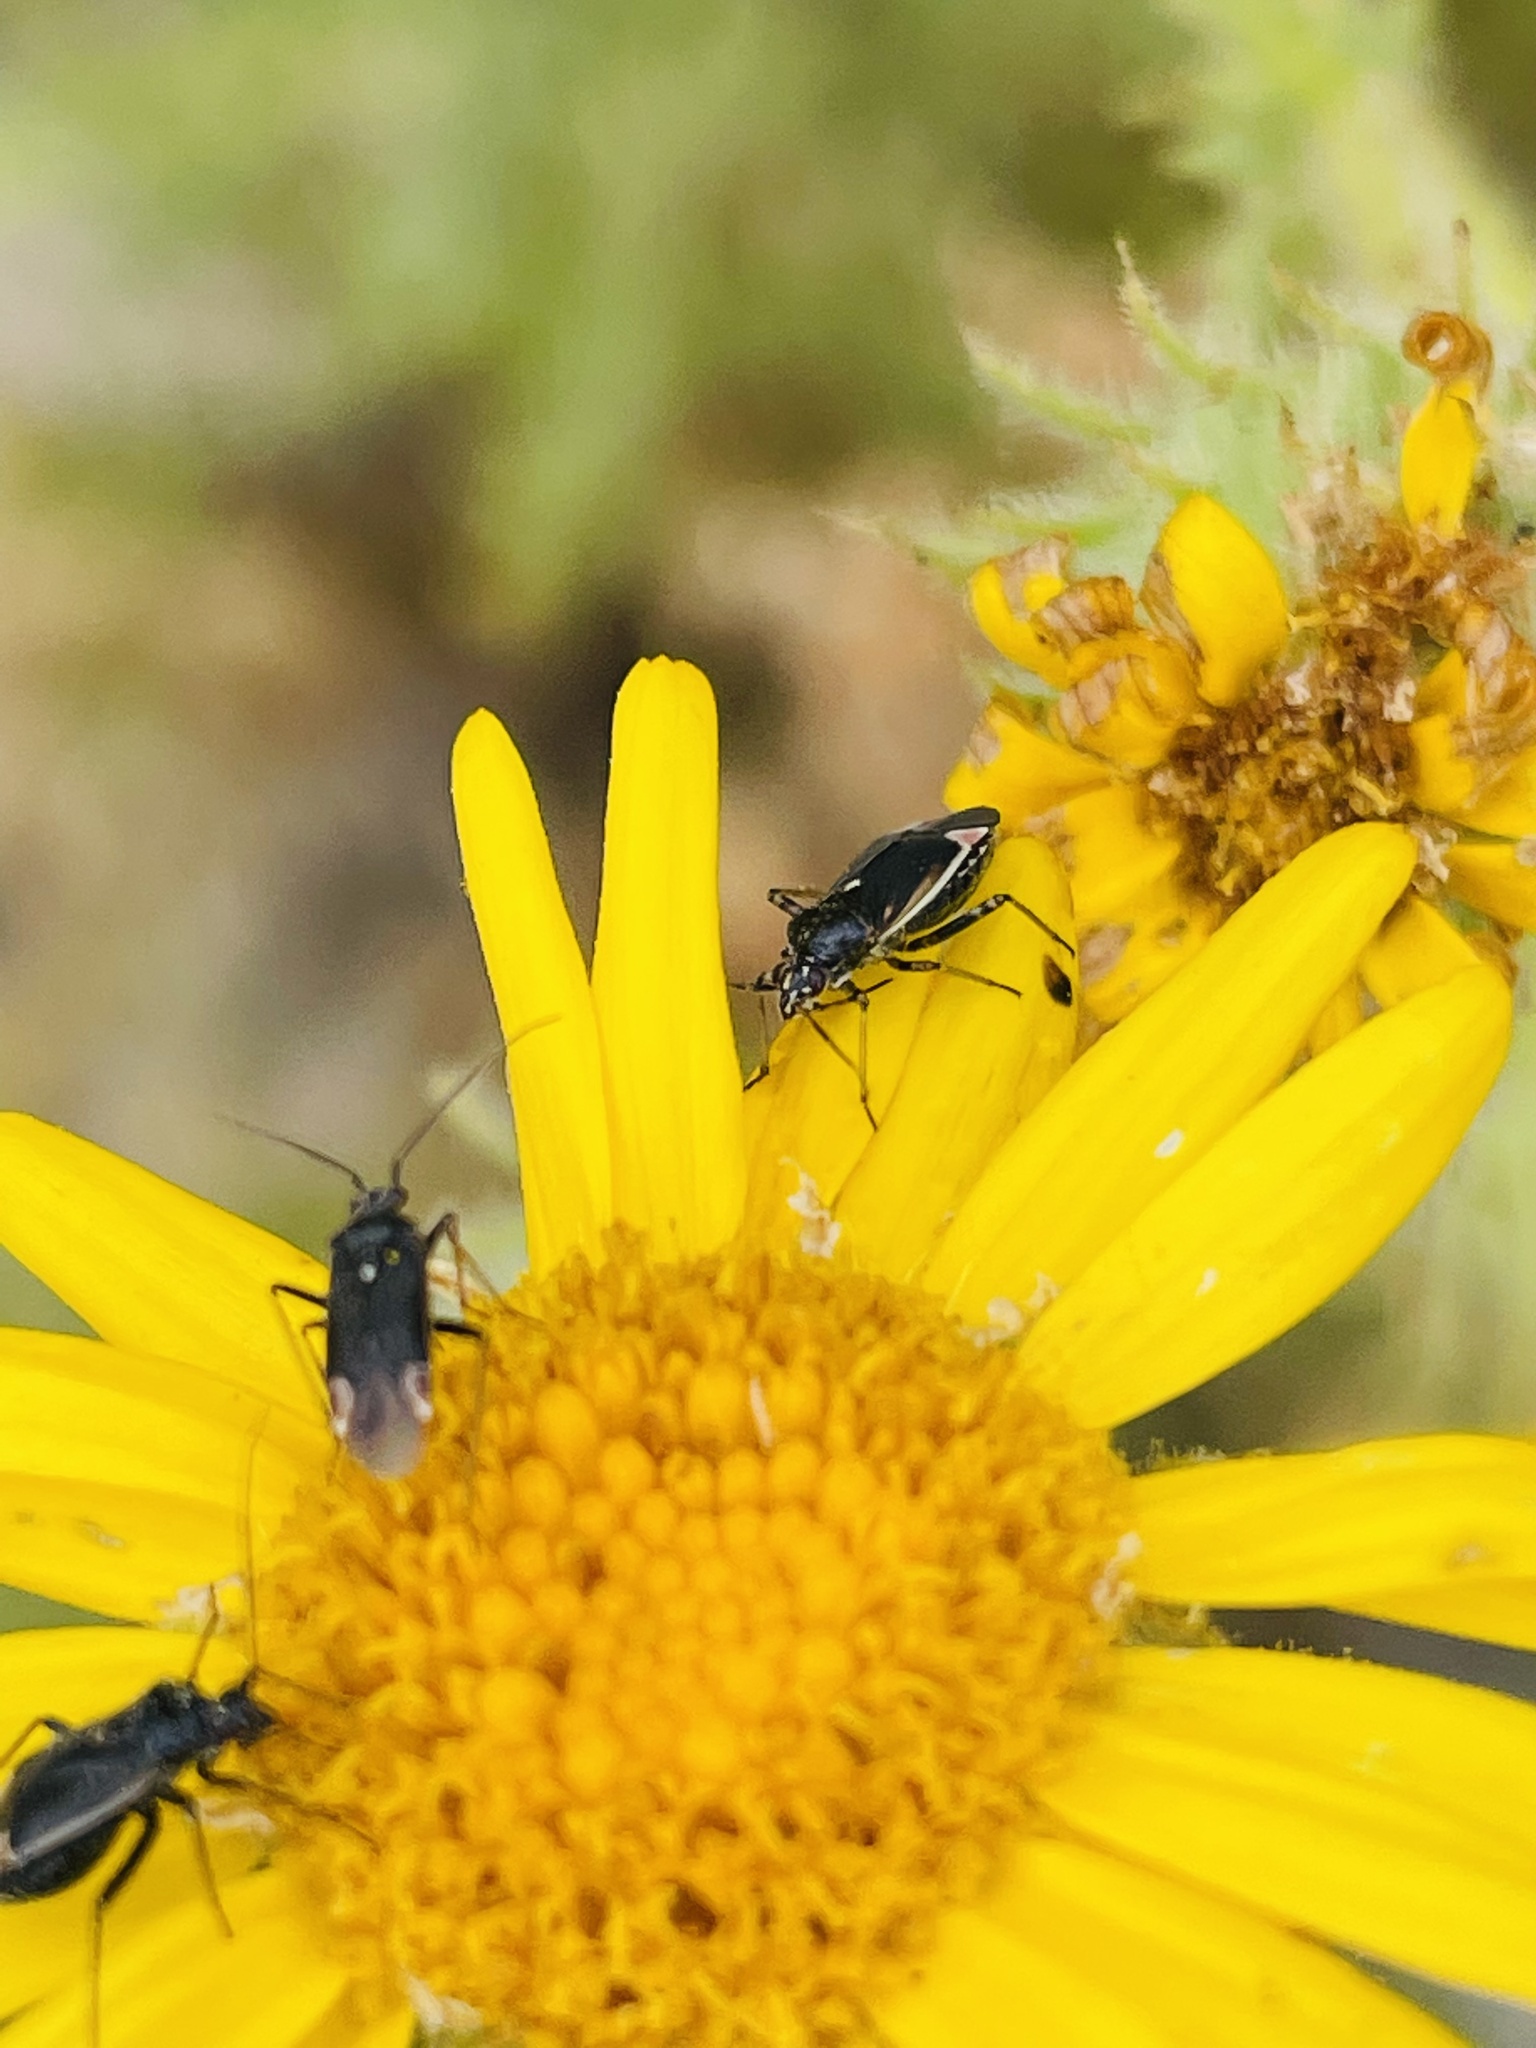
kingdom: Animalia
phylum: Arthropoda
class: Insecta
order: Hemiptera
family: Miridae
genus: Polymerus
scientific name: Polymerus
